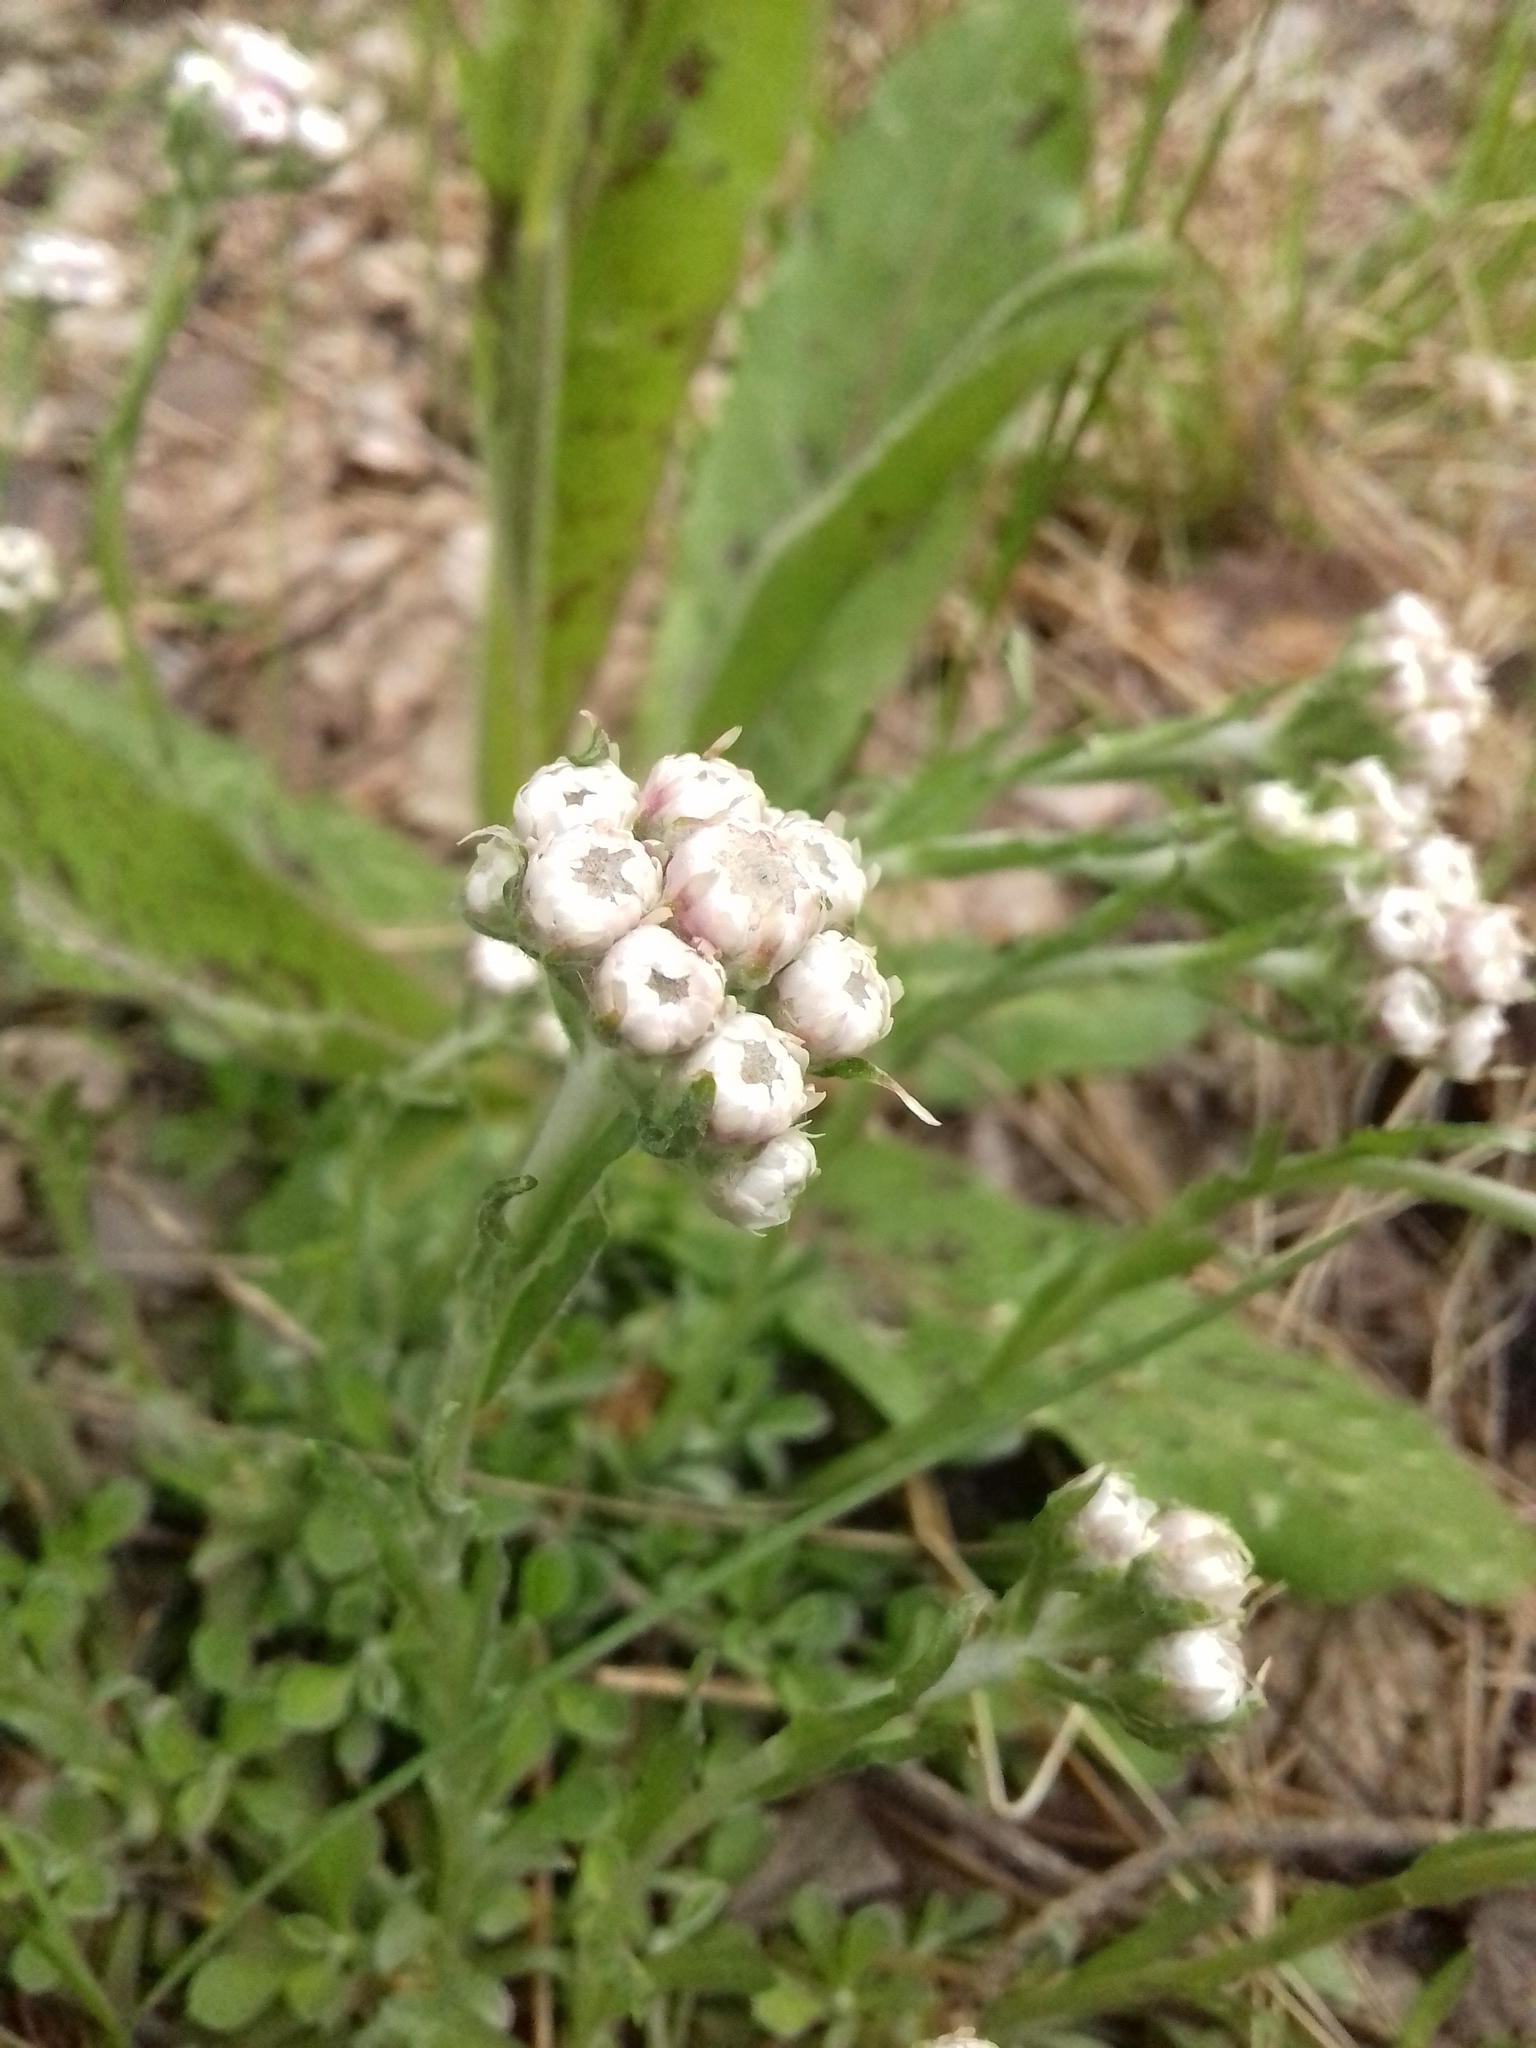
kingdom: Plantae
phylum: Tracheophyta
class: Magnoliopsida
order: Asterales
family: Asteraceae
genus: Antennaria
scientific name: Antennaria dioica
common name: Mountain everlasting
